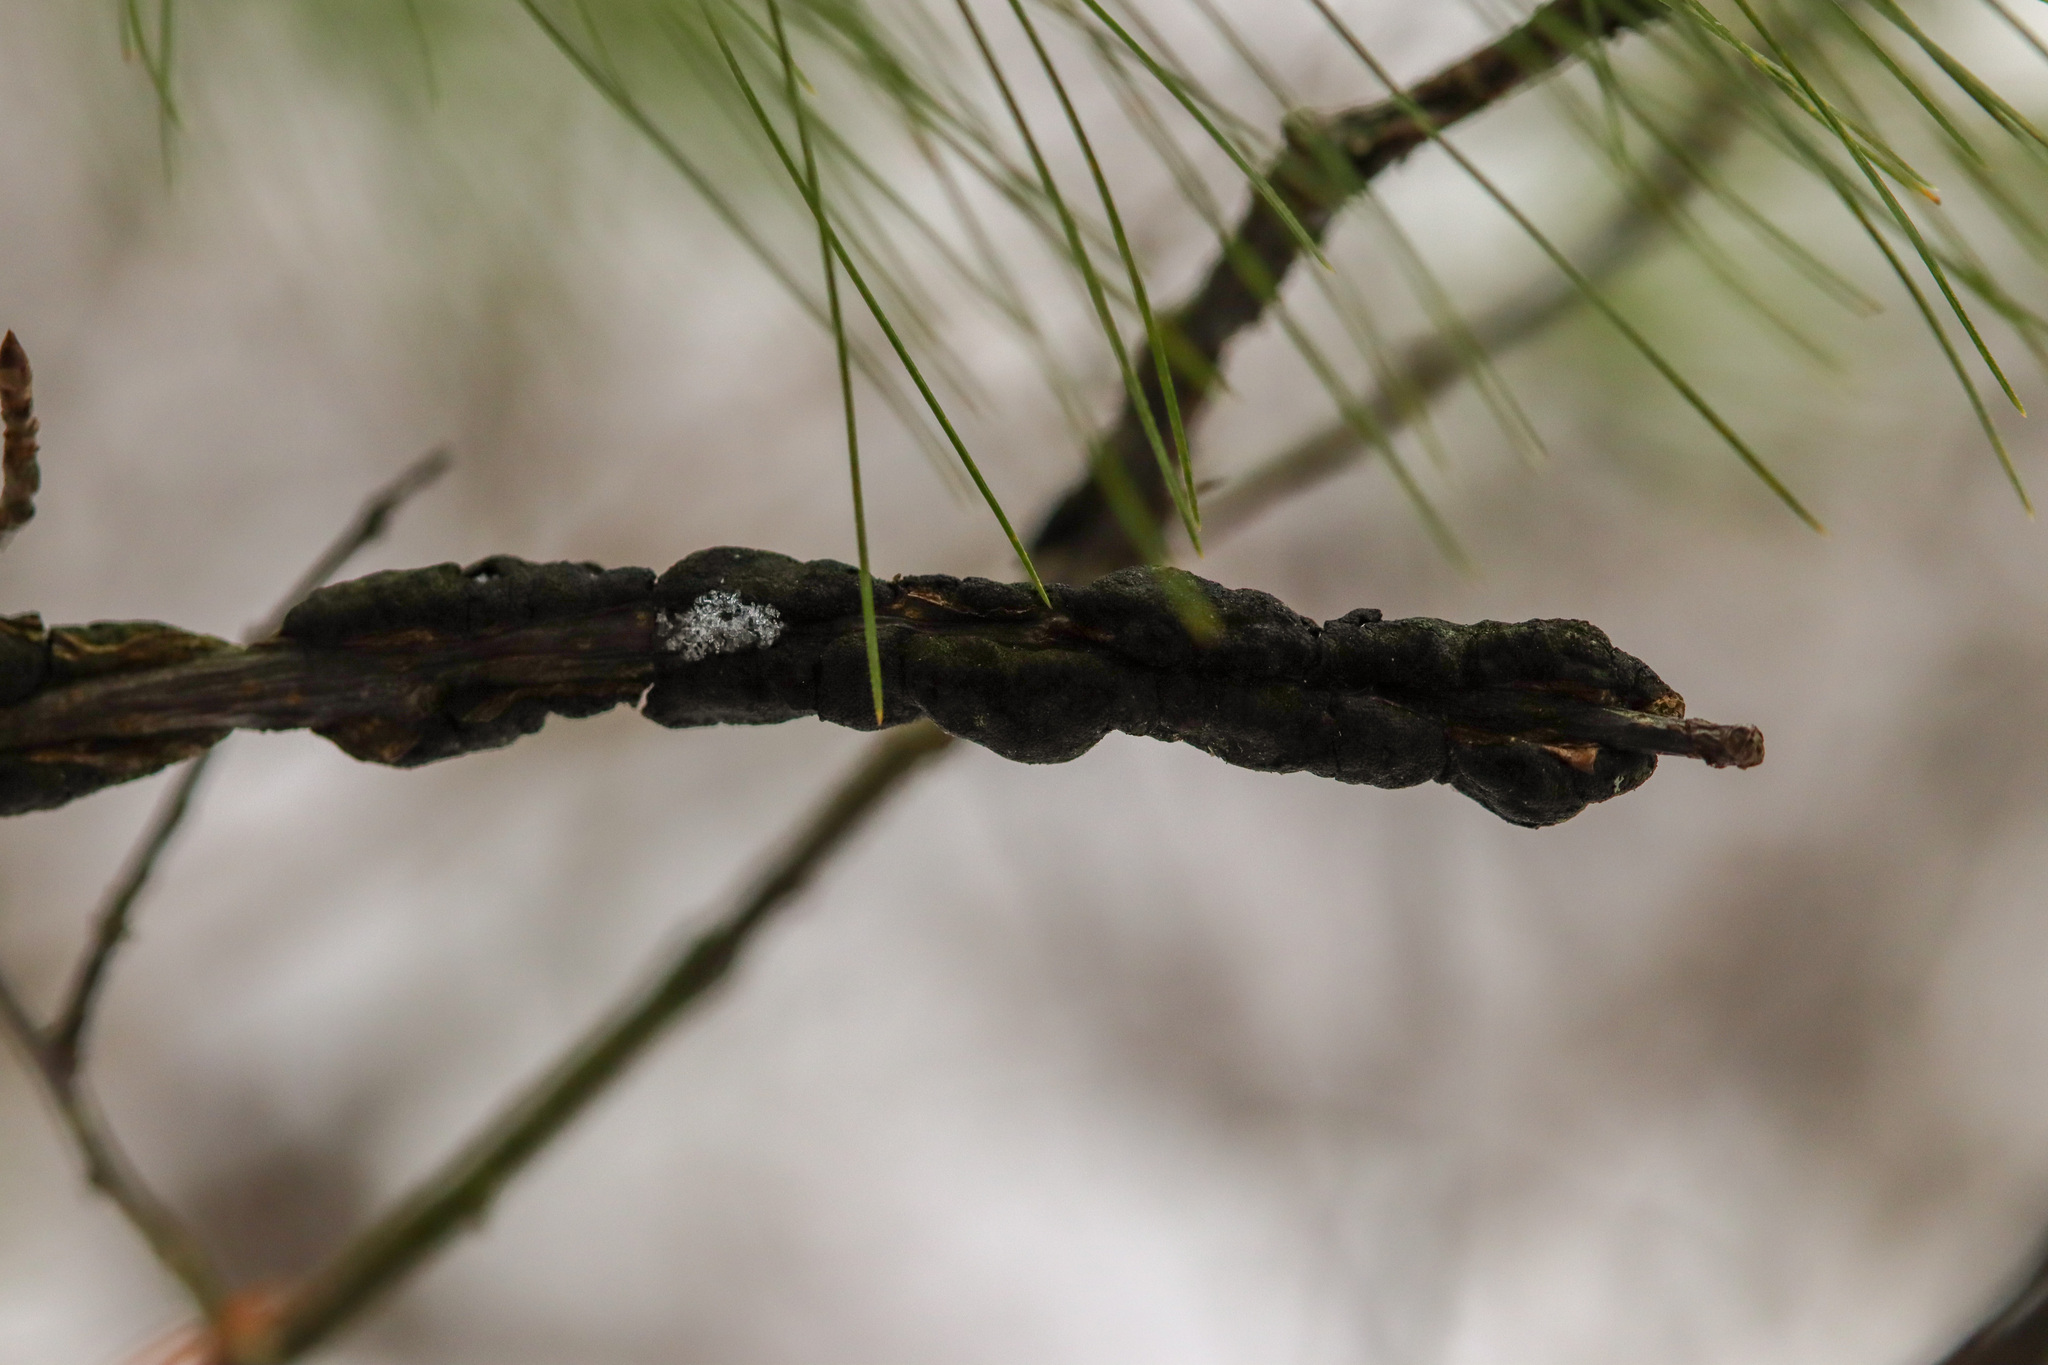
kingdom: Fungi
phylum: Ascomycota
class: Dothideomycetes
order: Venturiales
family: Venturiaceae
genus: Apiosporina
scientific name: Apiosporina morbosa
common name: Black knot
